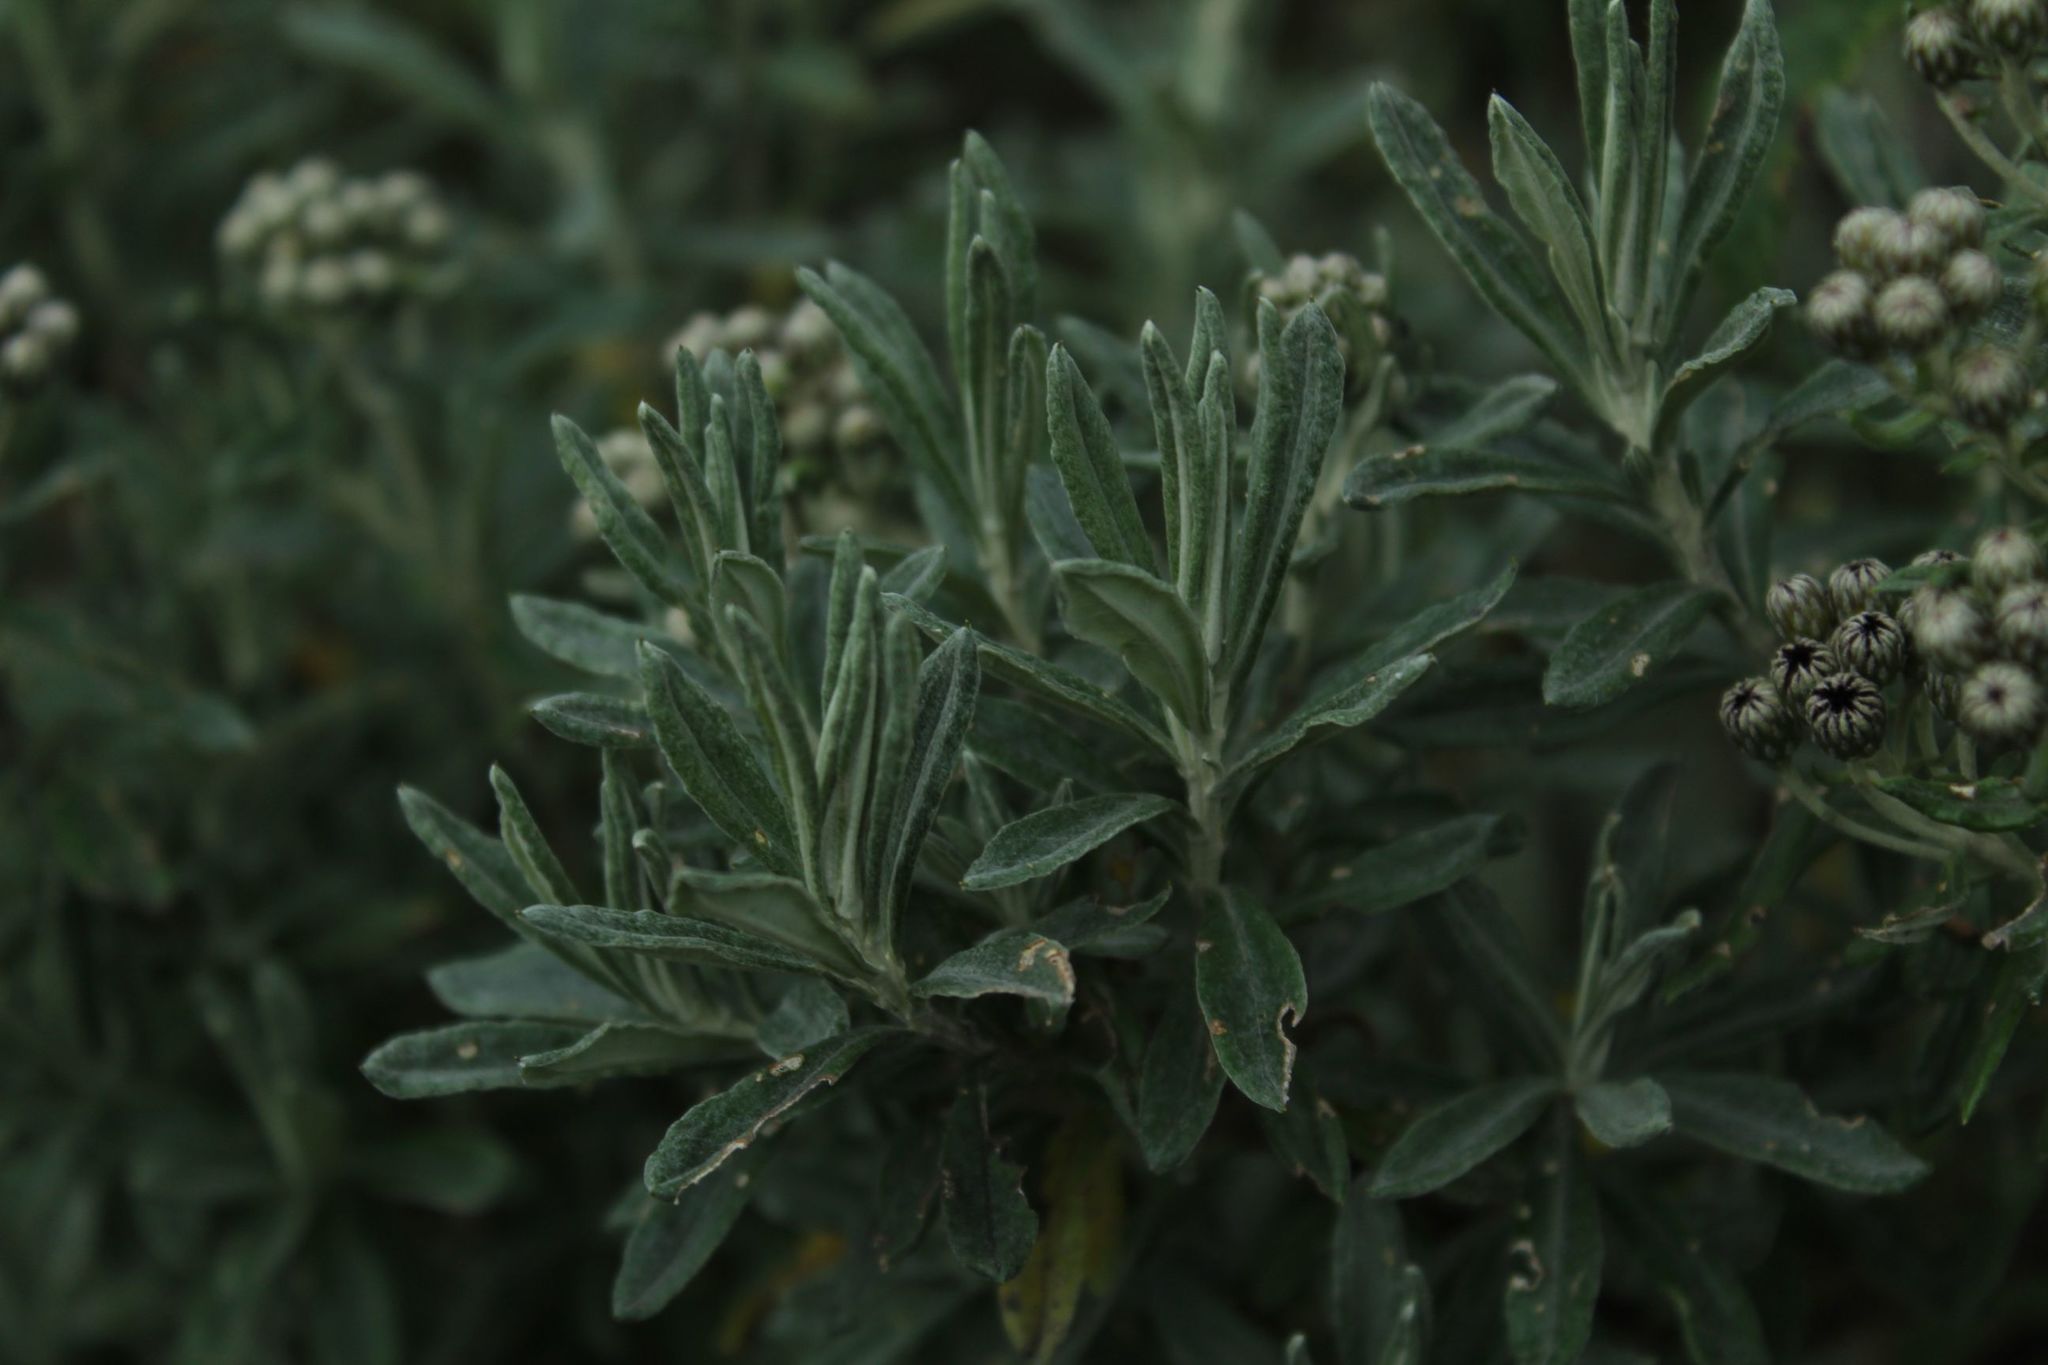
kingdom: Plantae
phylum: Tracheophyta
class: Magnoliopsida
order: Asterales
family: Asteraceae
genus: Linochilus
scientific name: Linochilus alveolatus
